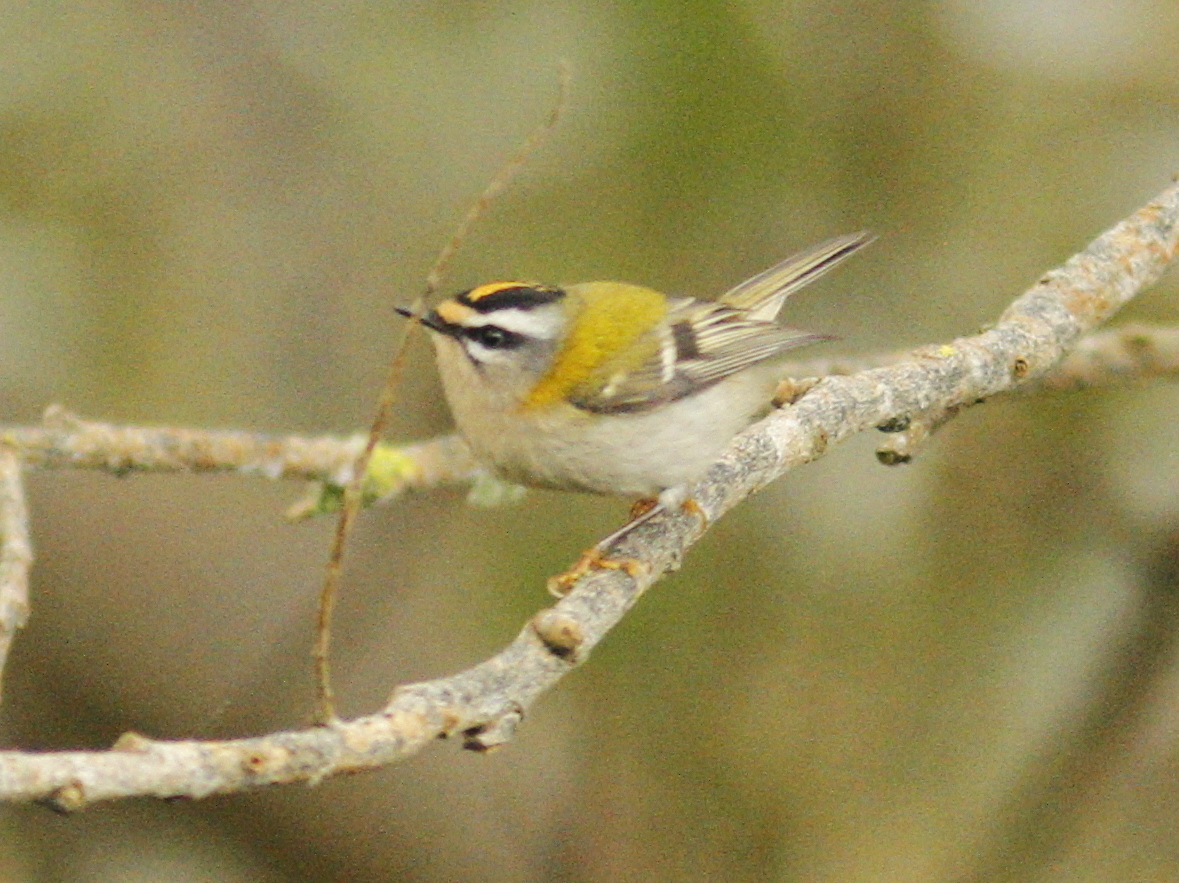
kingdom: Animalia
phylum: Chordata
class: Aves
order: Passeriformes
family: Regulidae
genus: Regulus
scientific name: Regulus ignicapilla
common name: Firecrest
